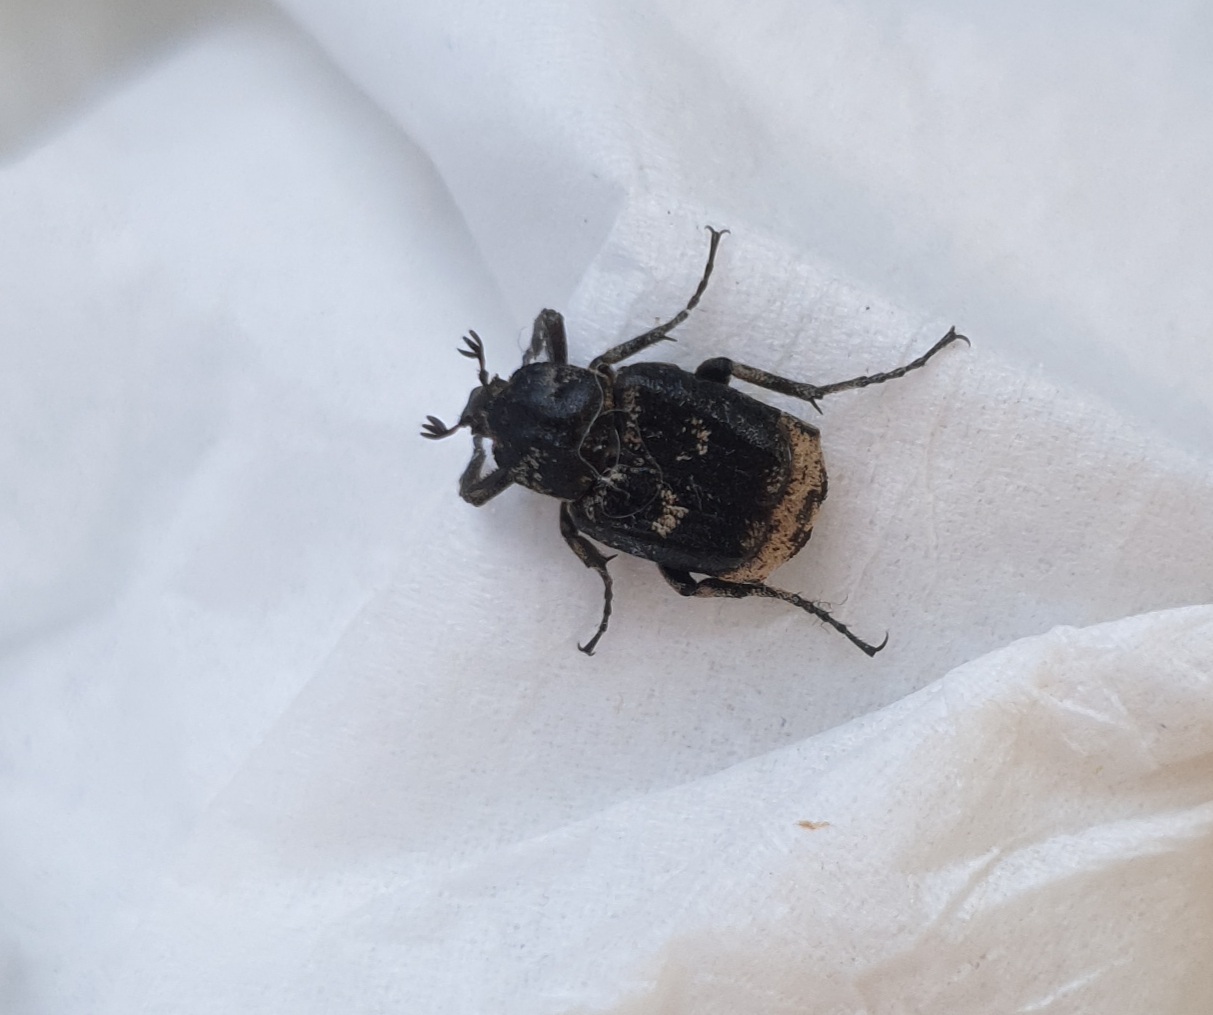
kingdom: Animalia
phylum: Arthropoda
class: Insecta
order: Coleoptera
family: Scarabaeidae
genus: Valgus
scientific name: Valgus hemipterus
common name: Bug flower chafer
